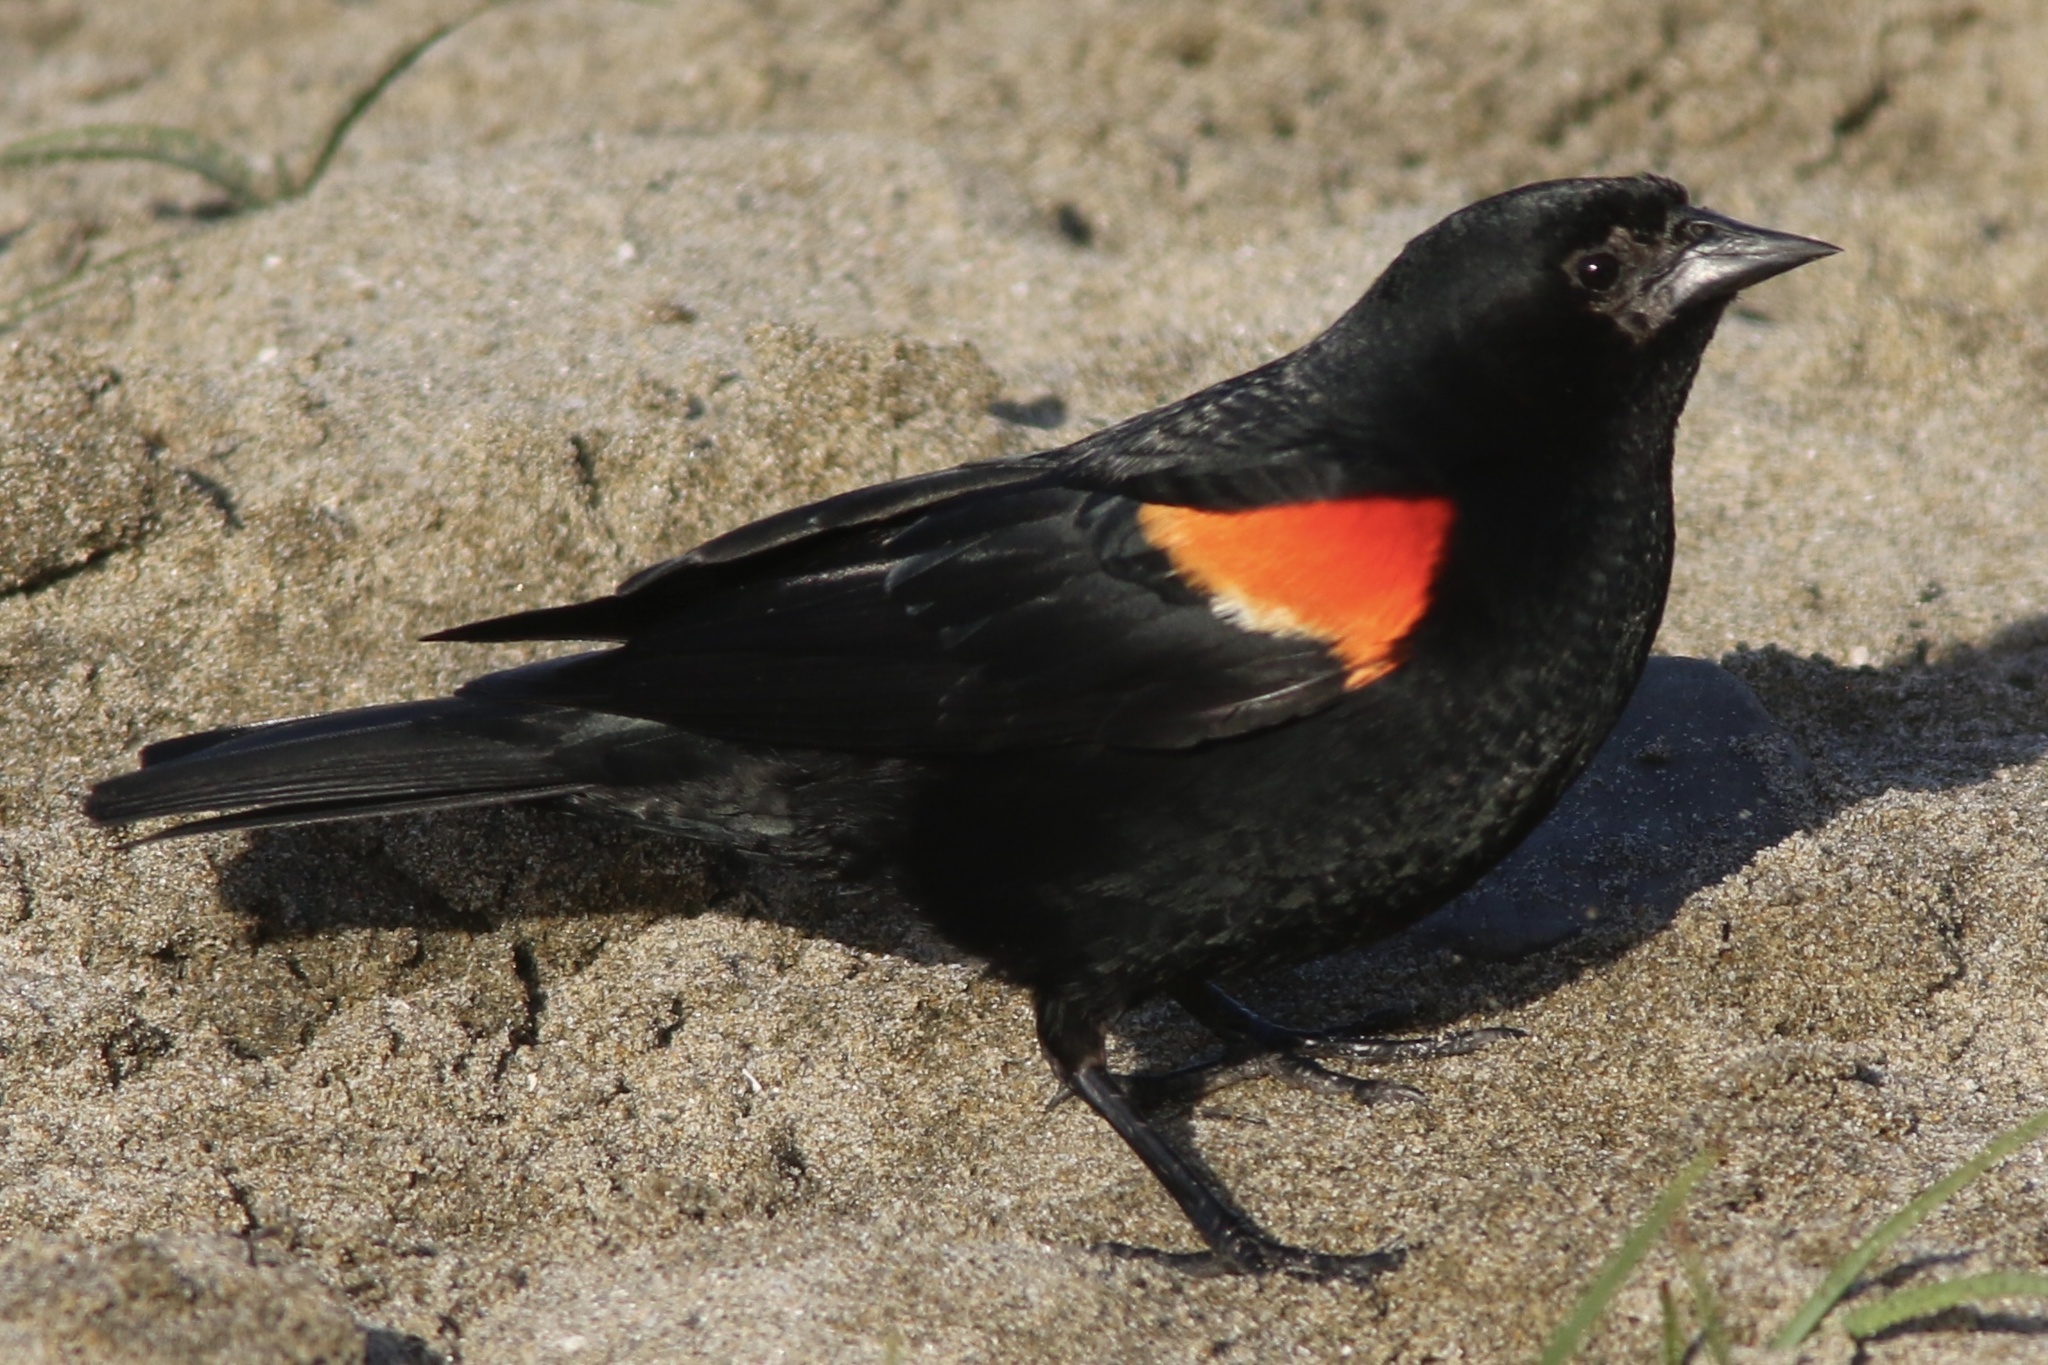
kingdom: Animalia
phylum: Chordata
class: Aves
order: Passeriformes
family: Icteridae
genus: Agelaius
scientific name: Agelaius phoeniceus
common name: Red-winged blackbird
